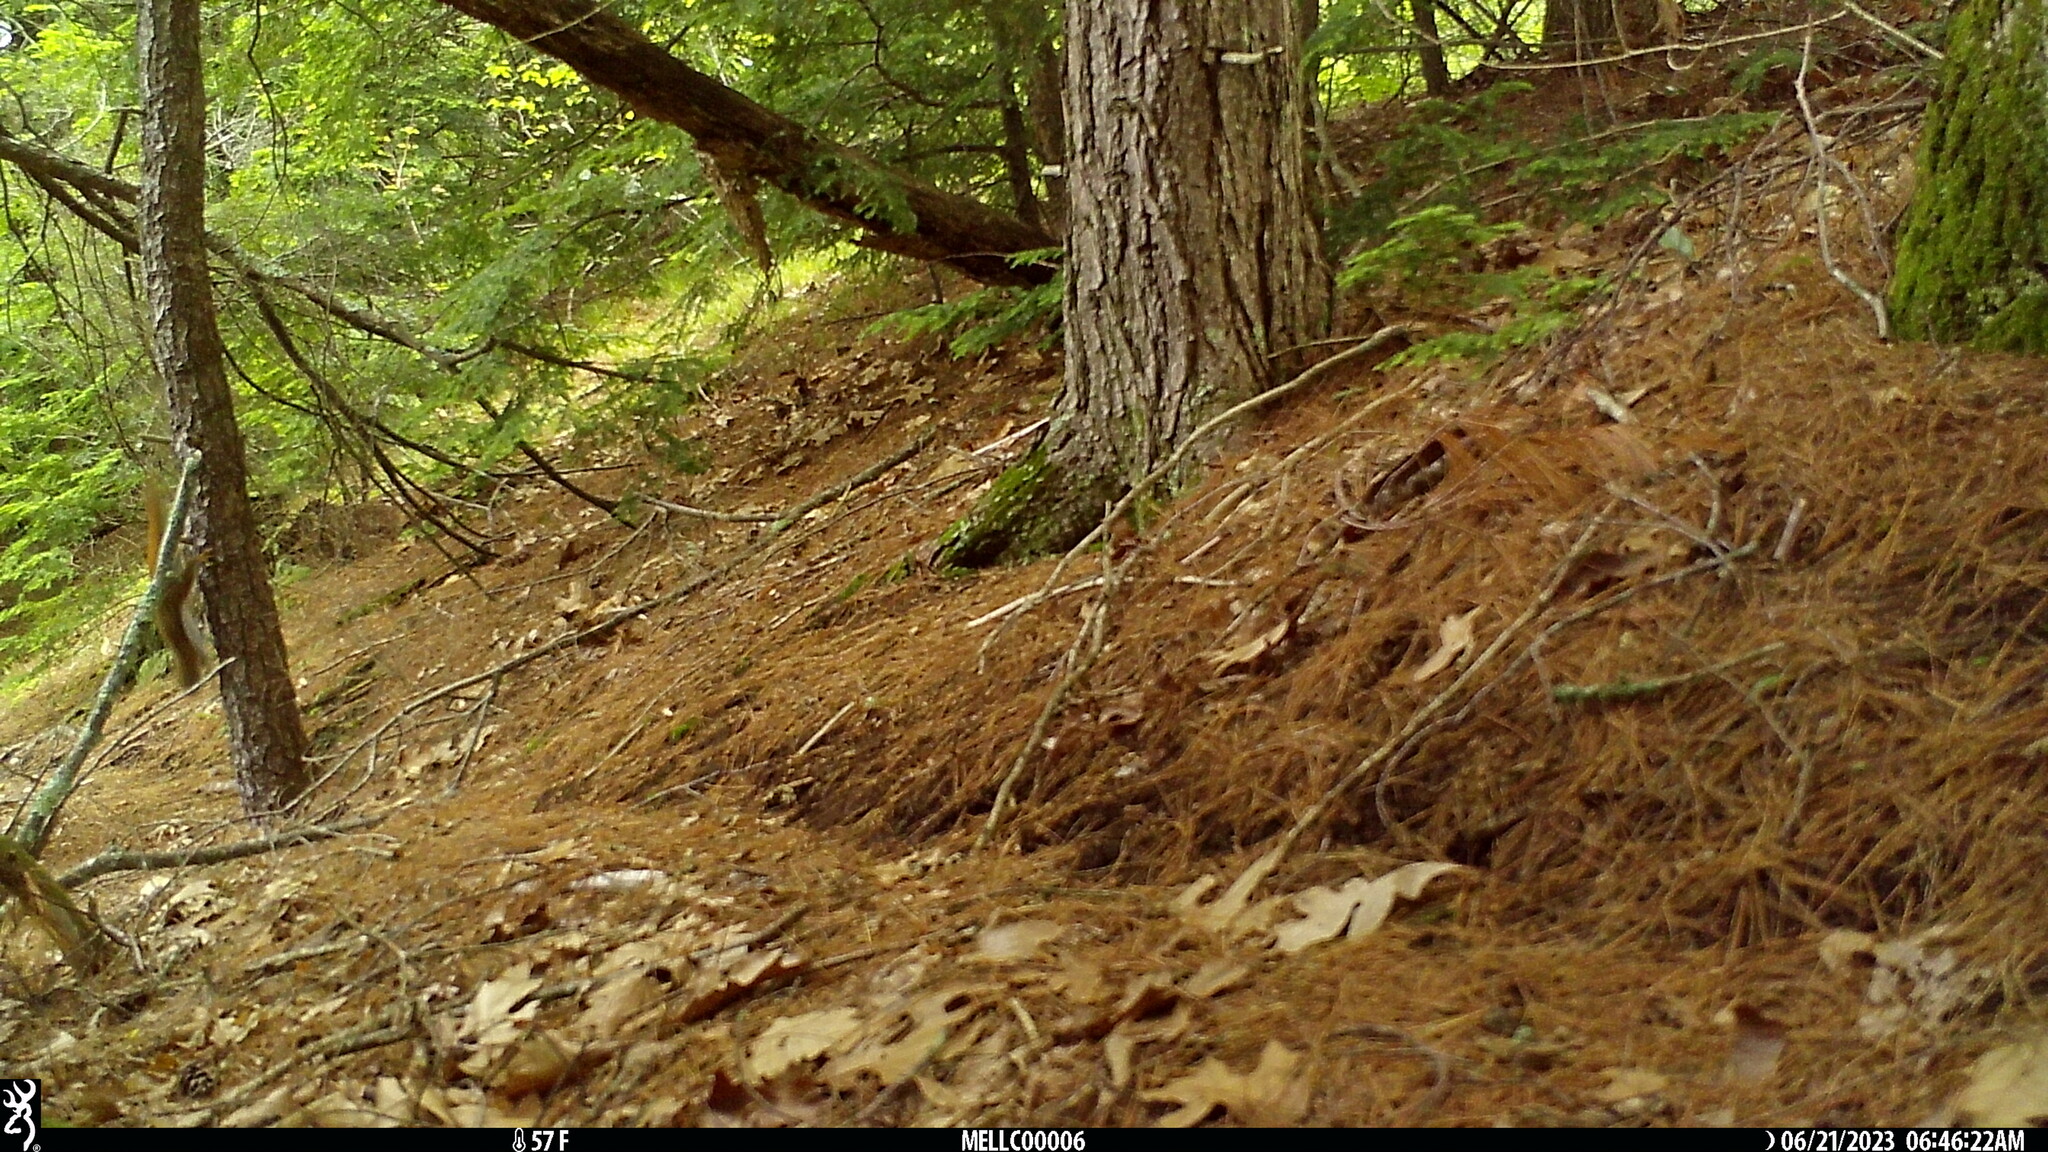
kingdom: Animalia
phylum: Chordata
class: Mammalia
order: Rodentia
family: Sciuridae
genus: Tamiasciurus
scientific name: Tamiasciurus hudsonicus
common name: Red squirrel
